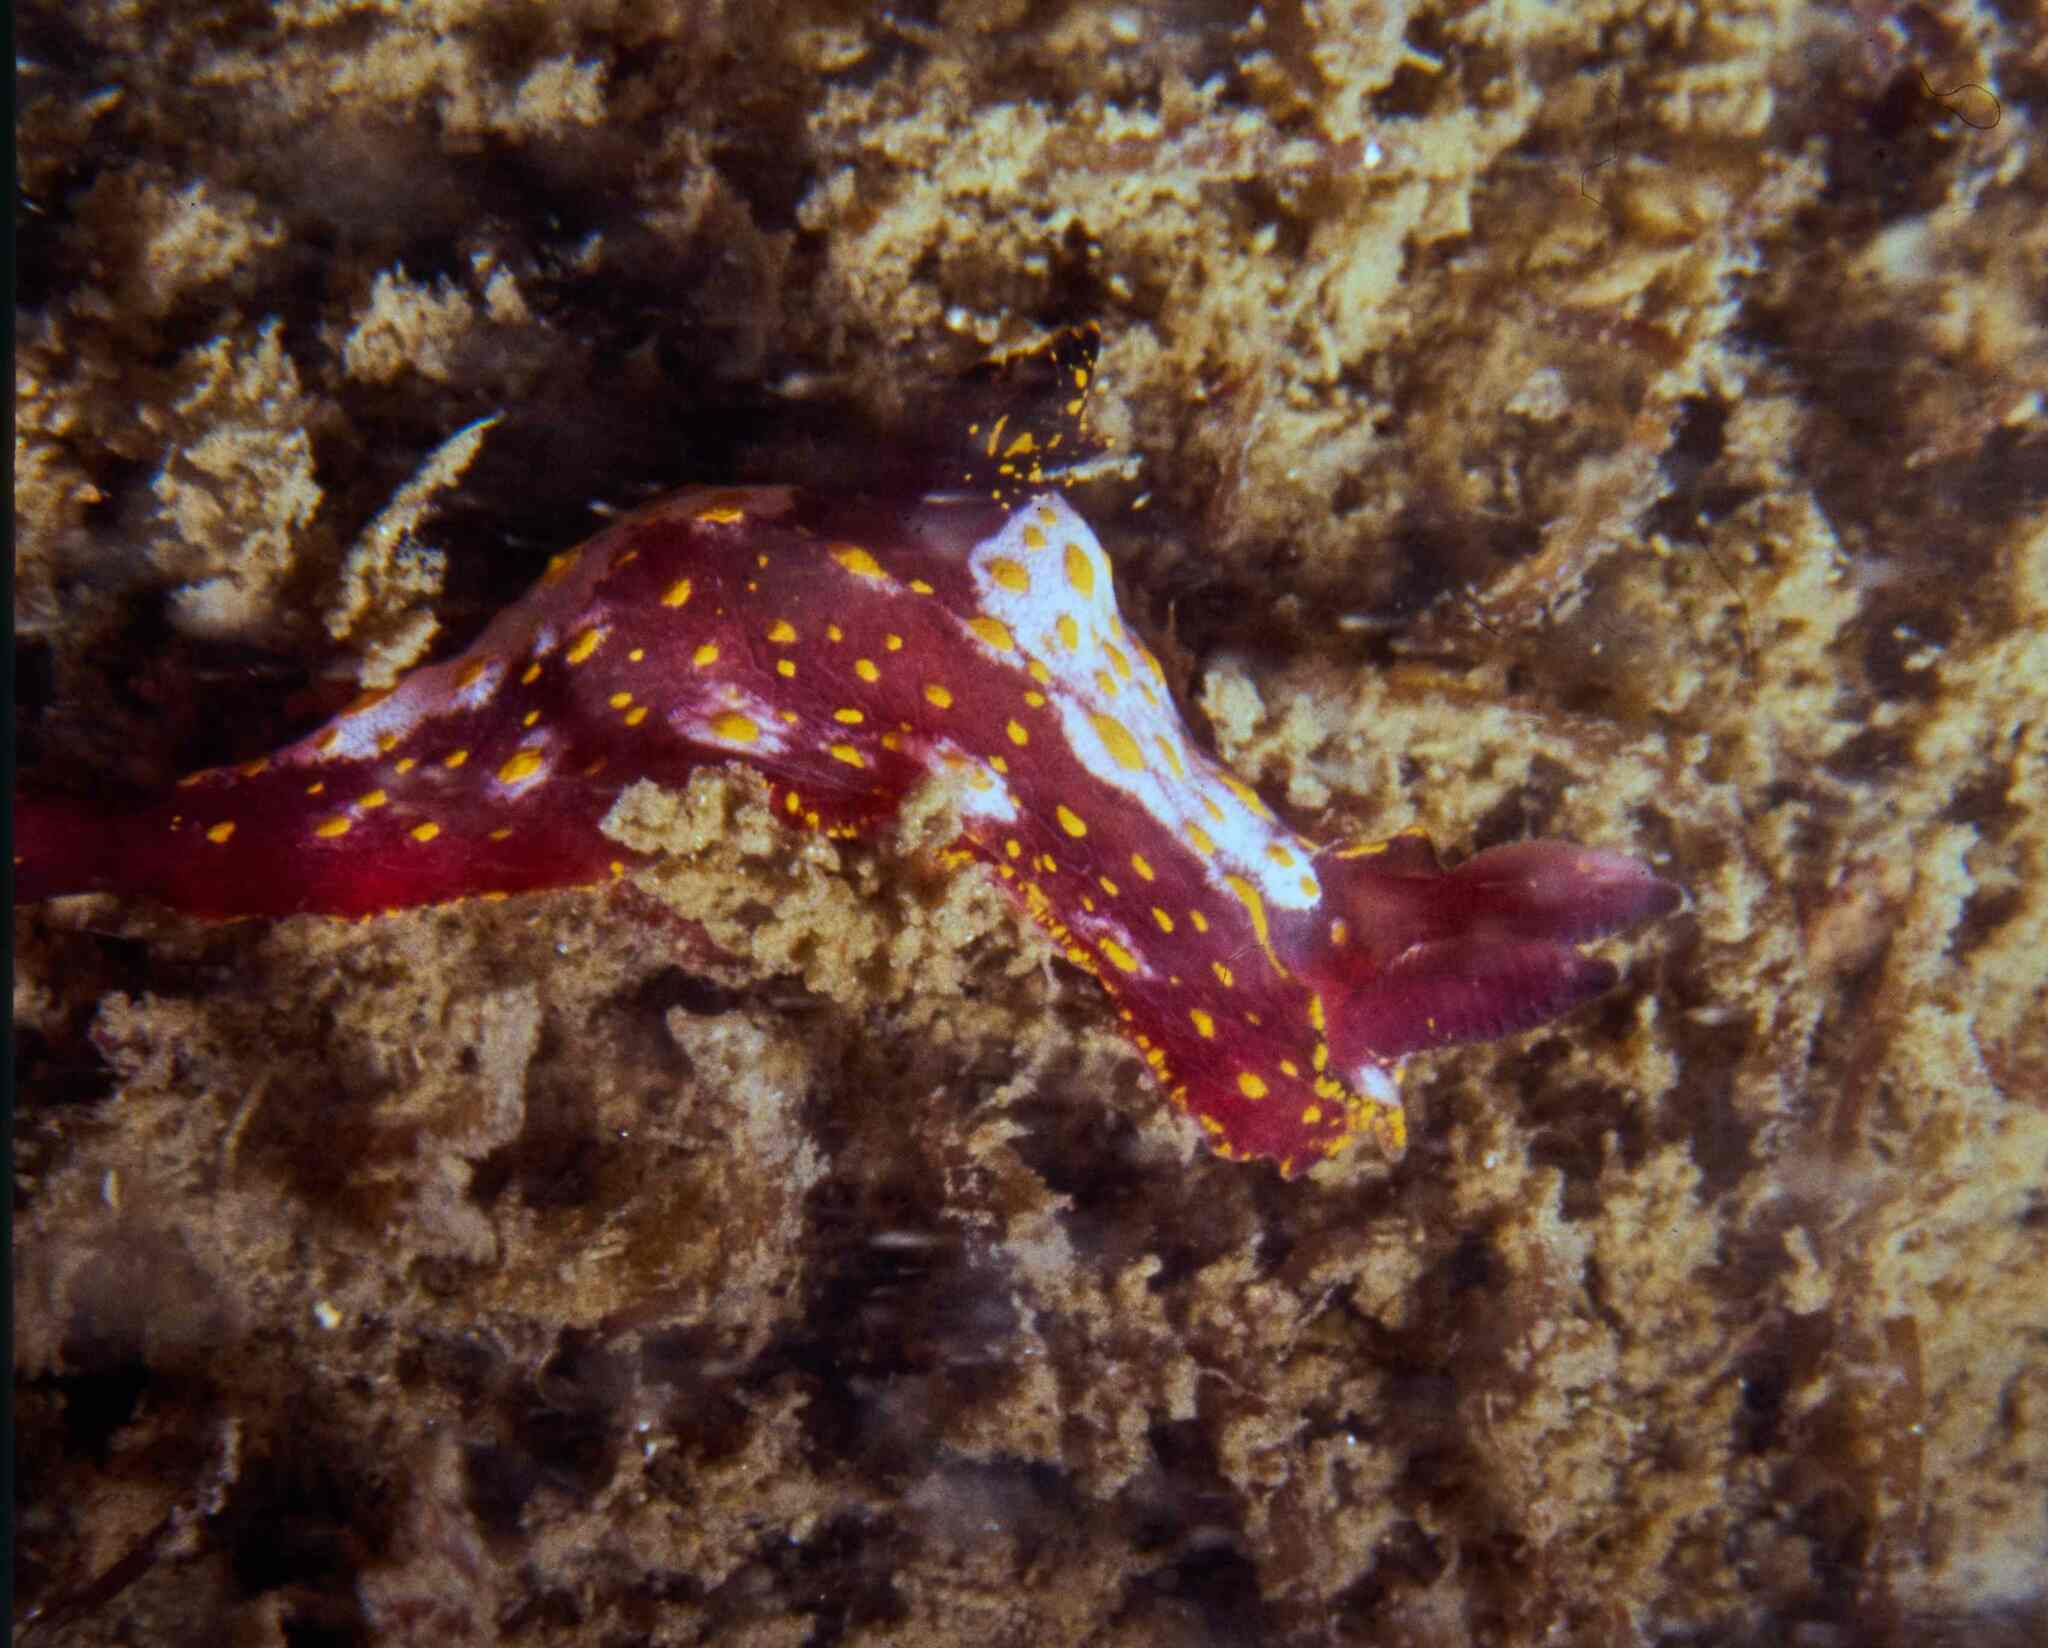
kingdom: Animalia
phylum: Mollusca
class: Gastropoda
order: Nudibranchia
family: Polyceridae
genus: Polycera
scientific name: Polycera maddoxi
